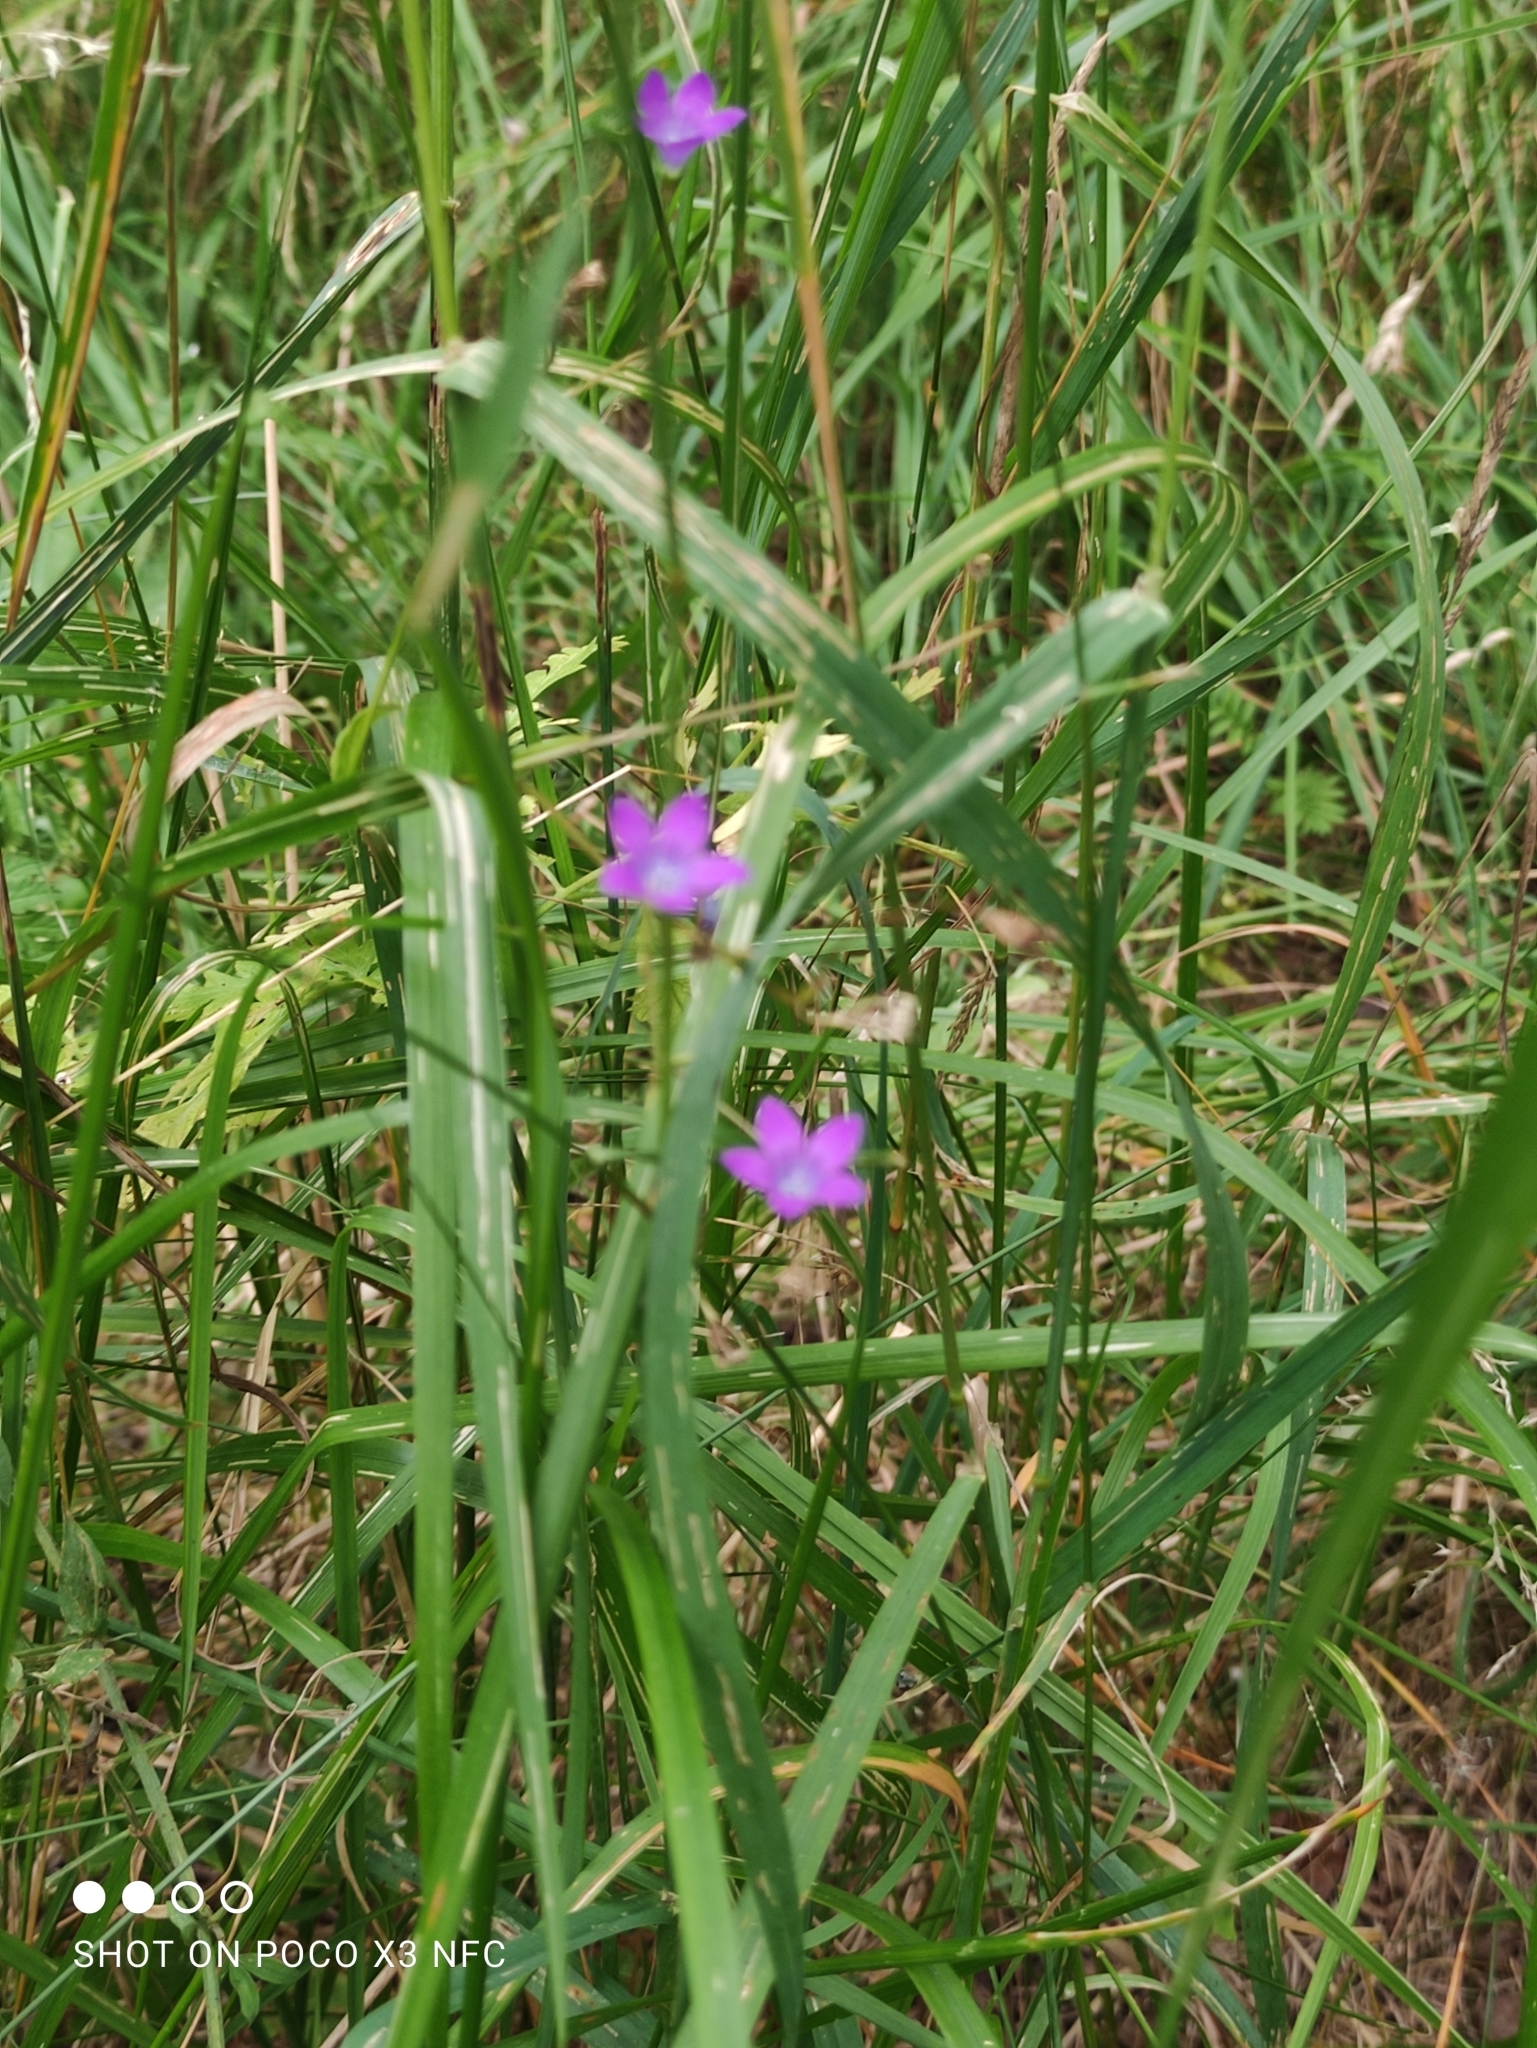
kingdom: Plantae
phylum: Tracheophyta
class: Magnoliopsida
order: Asterales
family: Campanulaceae
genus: Campanula
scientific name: Campanula patula
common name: Spreading bellflower
